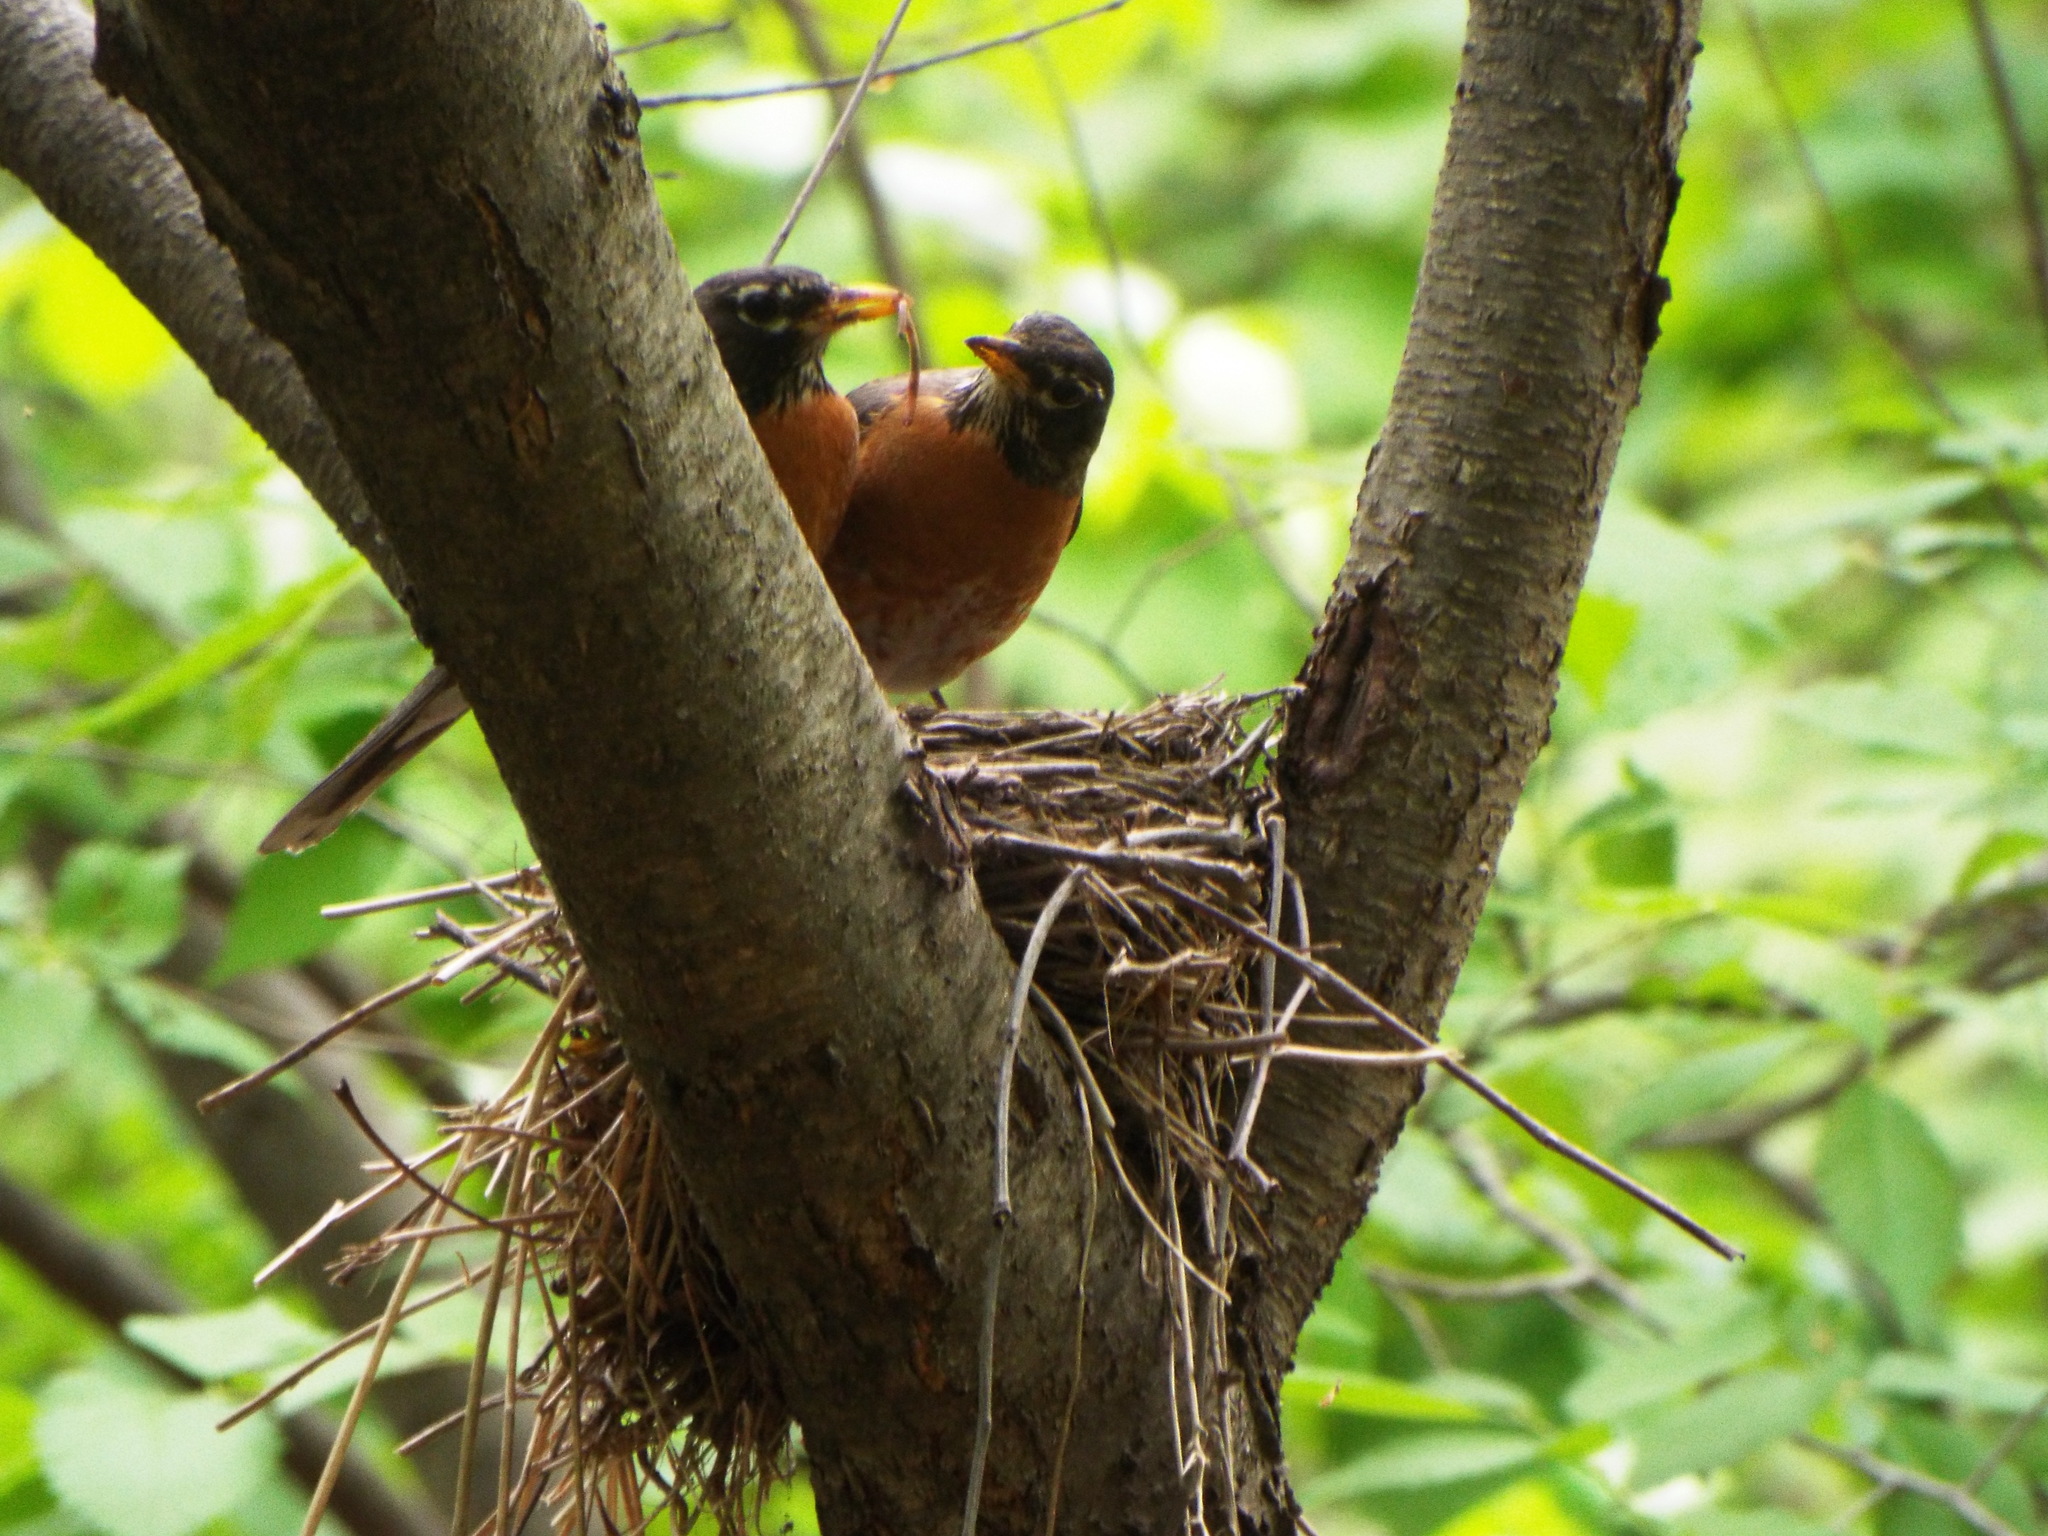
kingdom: Animalia
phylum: Chordata
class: Aves
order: Passeriformes
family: Turdidae
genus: Turdus
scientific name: Turdus migratorius
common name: American robin
